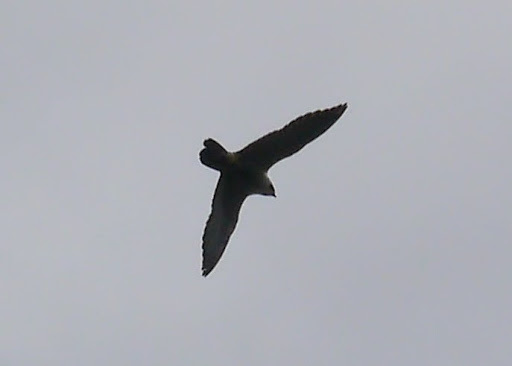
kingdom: Animalia
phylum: Chordata
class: Aves
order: Falconiformes
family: Falconidae
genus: Falco
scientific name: Falco peregrinus
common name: Peregrine falcon
